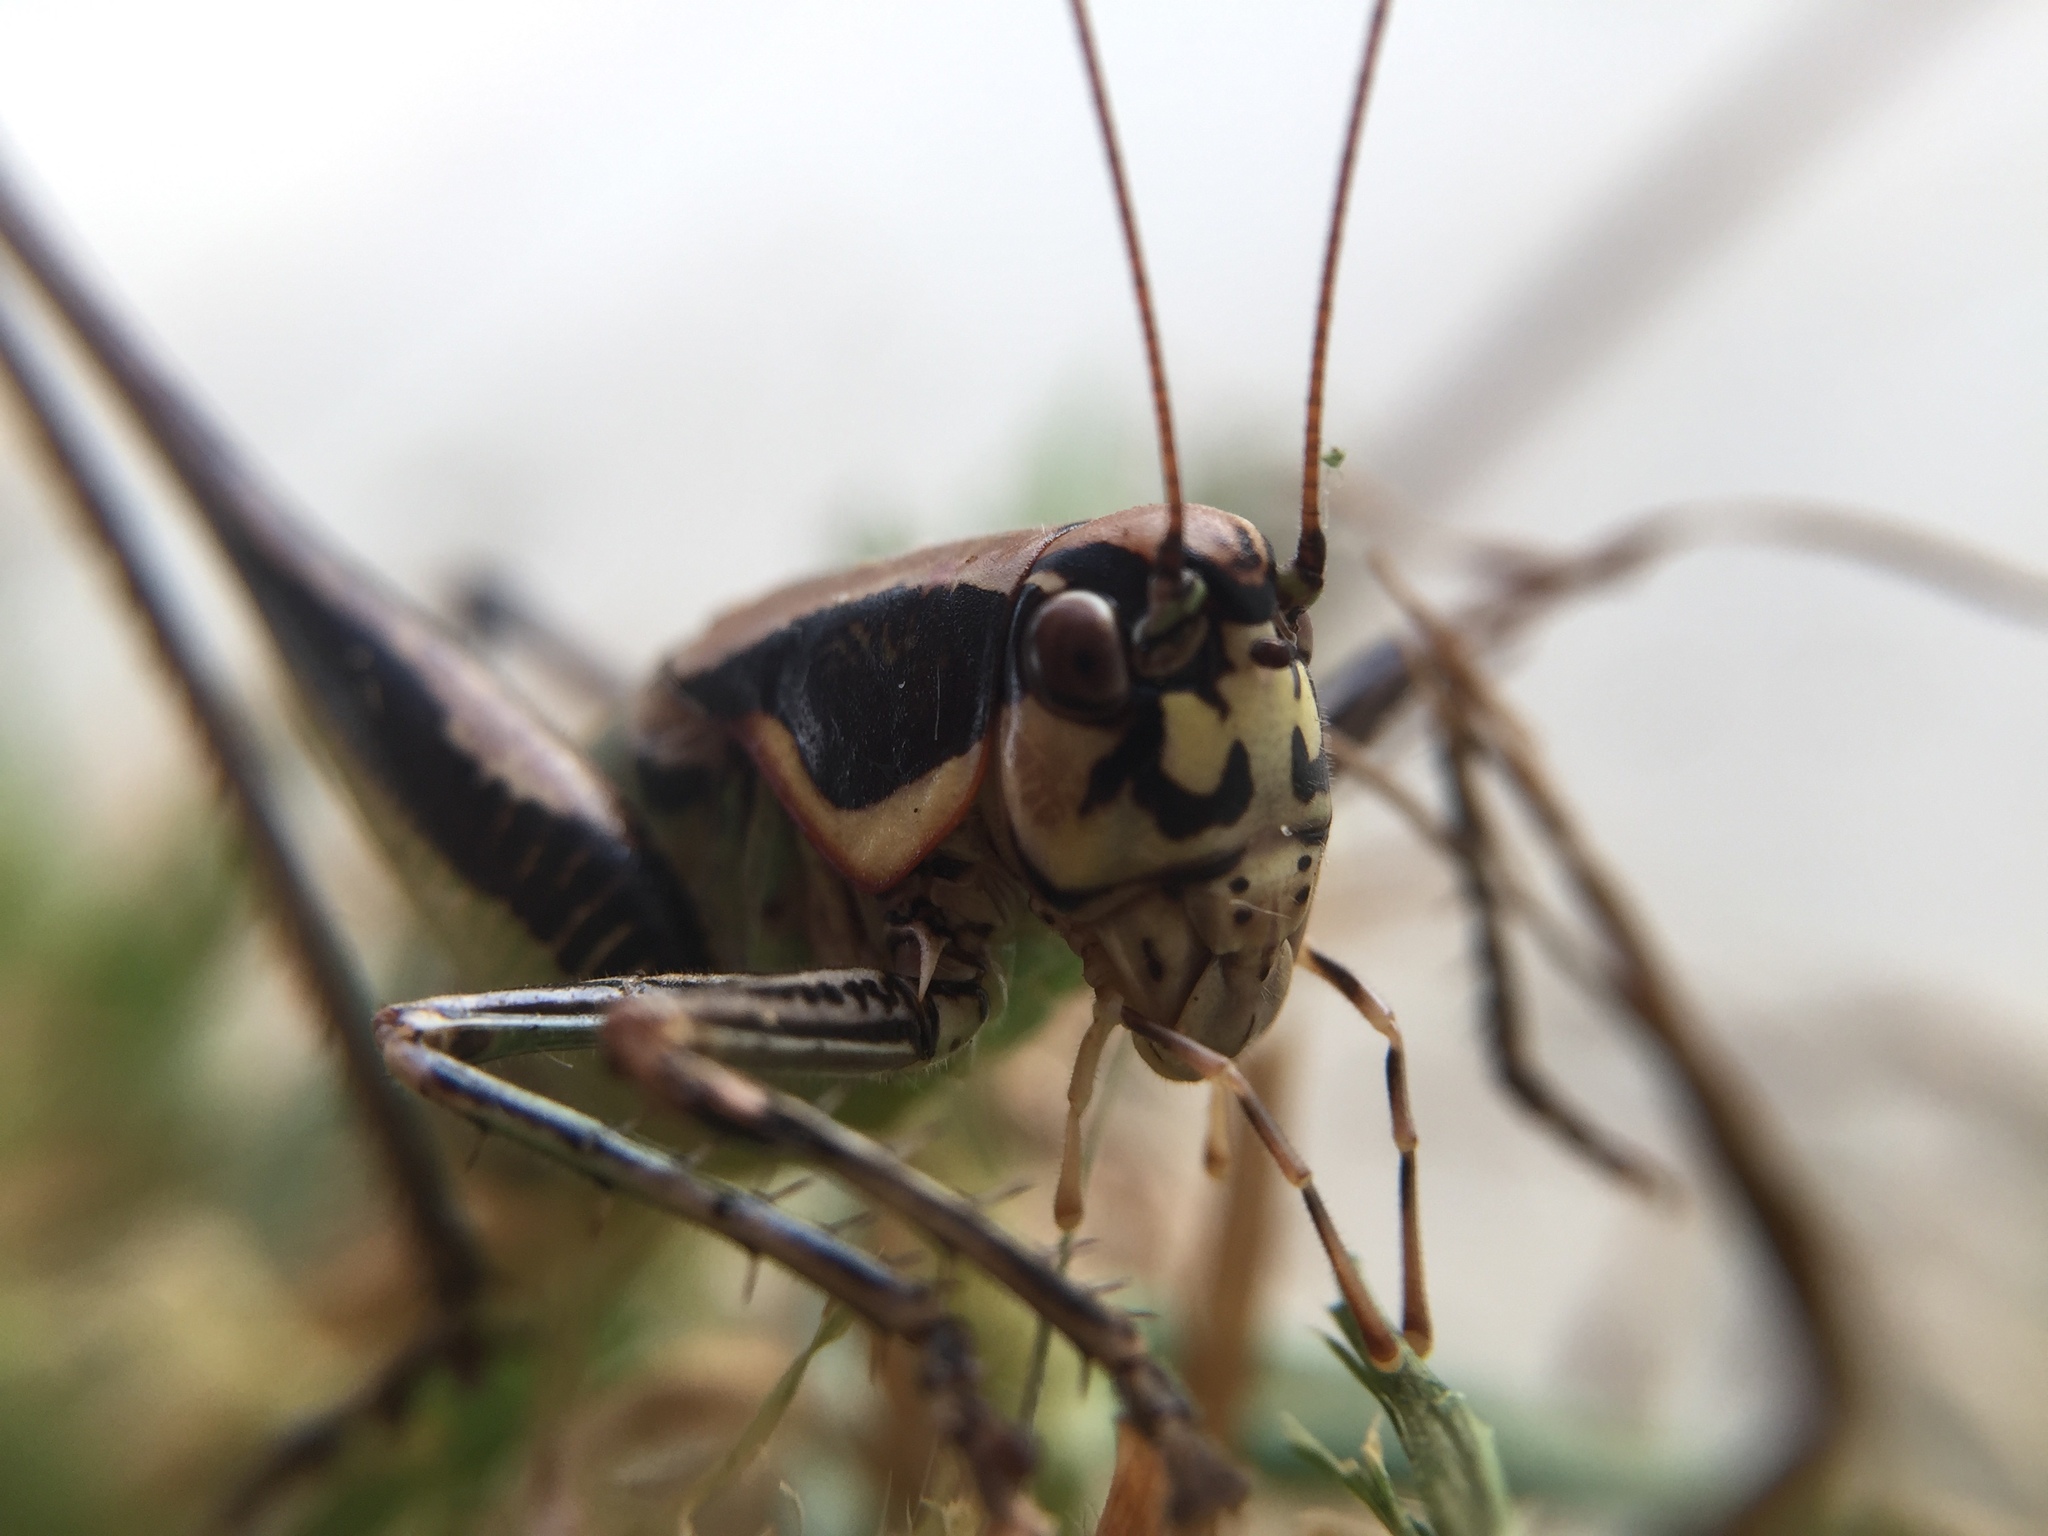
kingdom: Animalia
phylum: Arthropoda
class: Insecta
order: Orthoptera
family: Tettigoniidae
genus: Eupholidoptera
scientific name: Eupholidoptera smyrnensis
